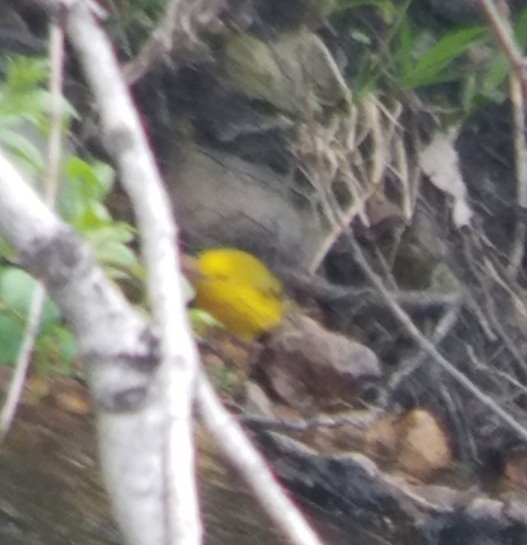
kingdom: Animalia
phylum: Chordata
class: Aves
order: Passeriformes
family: Parulidae
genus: Setophaga
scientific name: Setophaga petechia
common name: Yellow warbler
